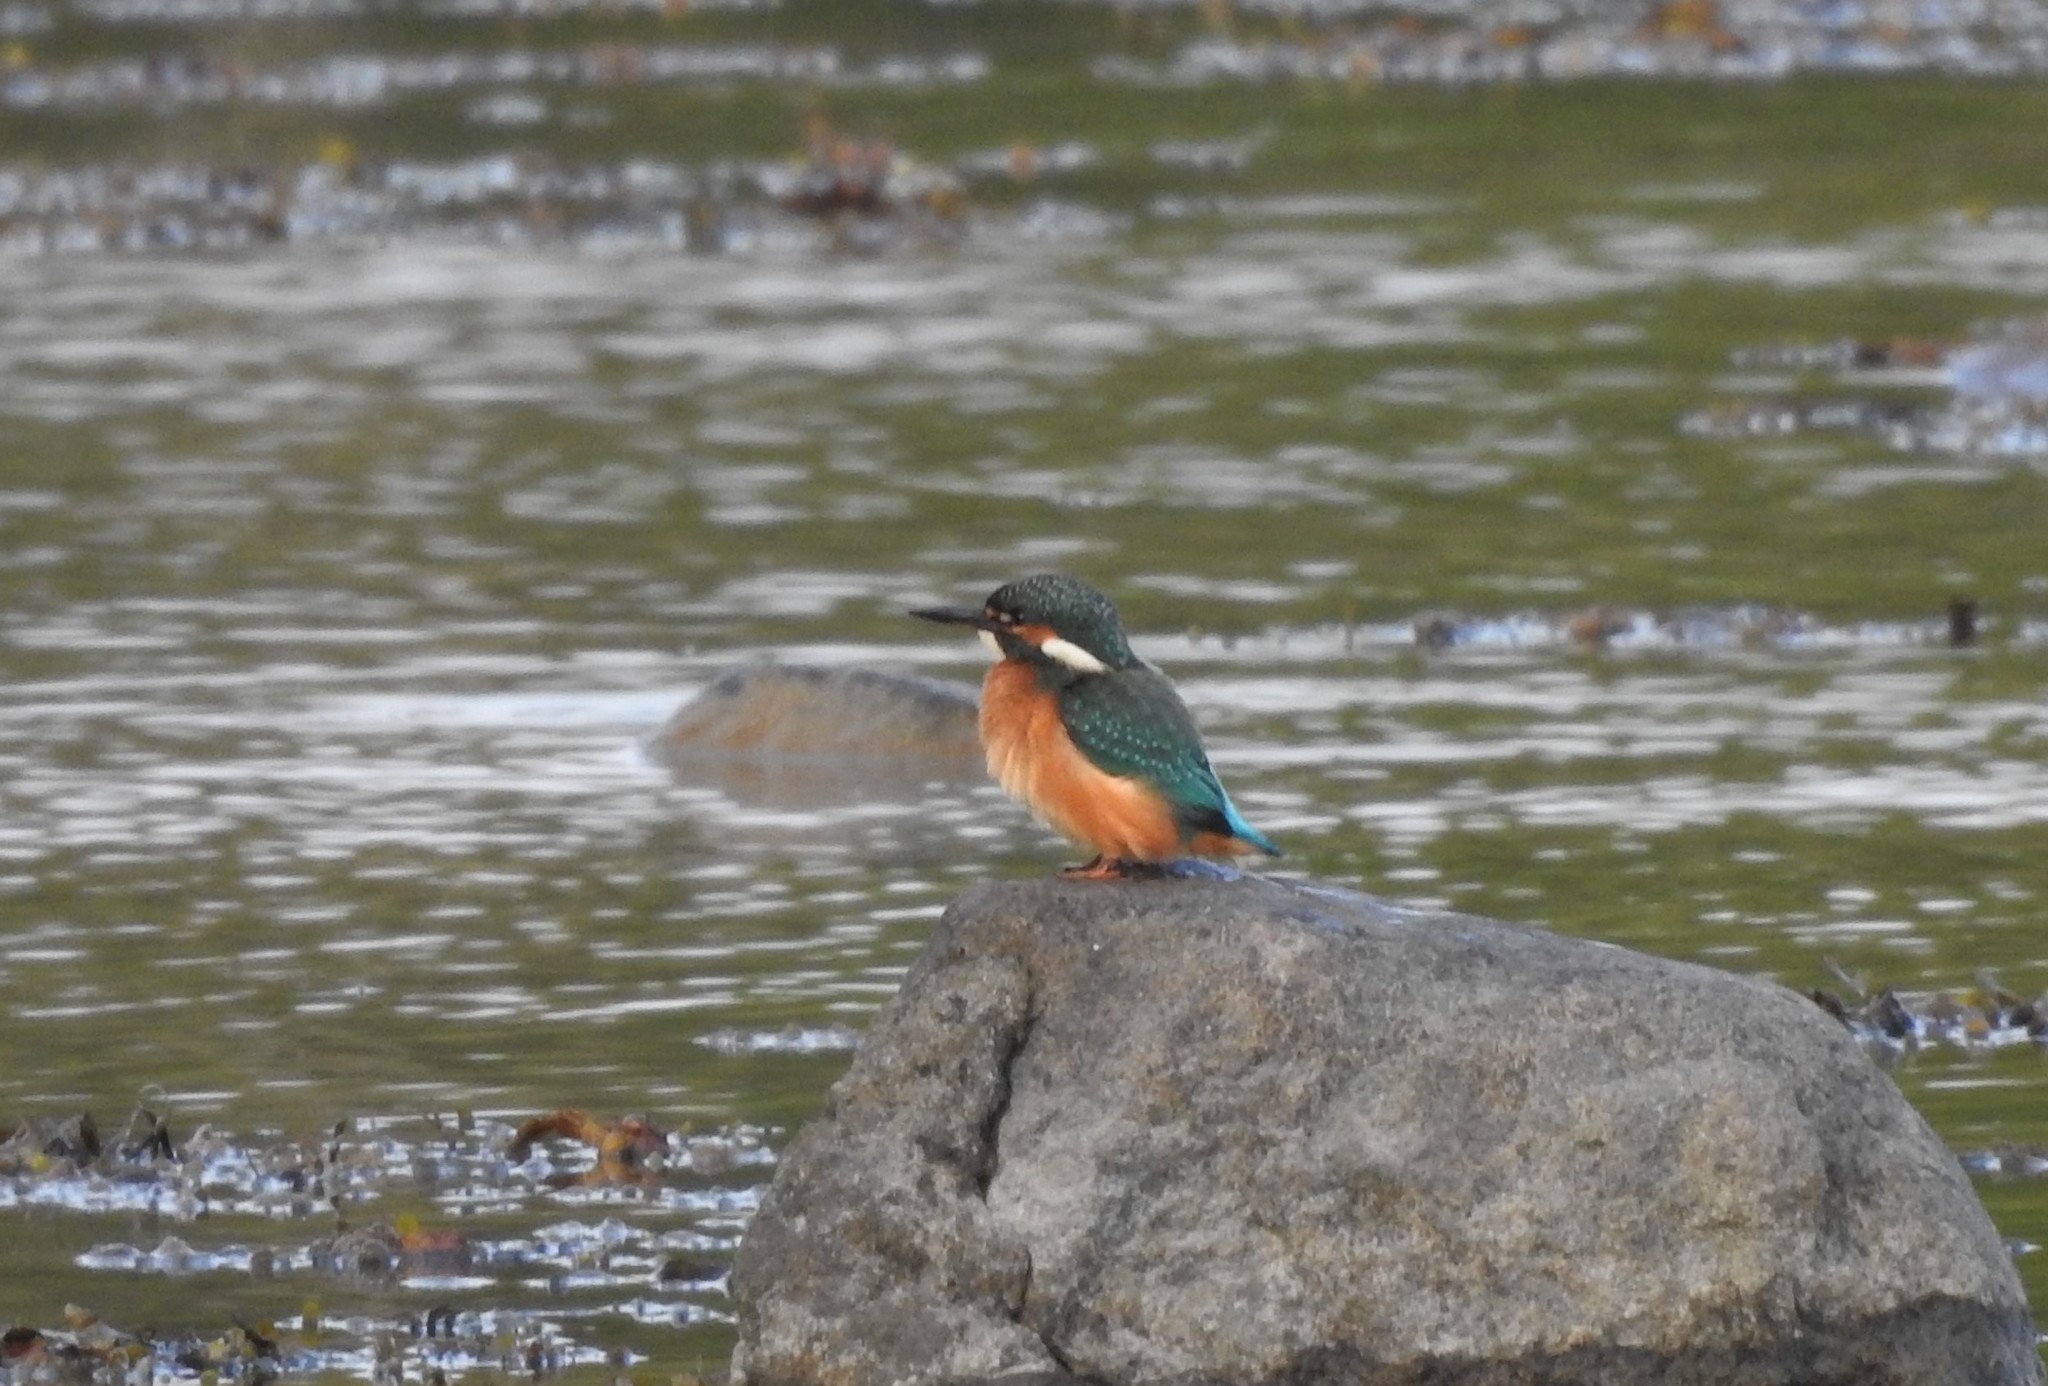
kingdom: Animalia
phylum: Chordata
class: Aves
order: Coraciiformes
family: Alcedinidae
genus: Alcedo
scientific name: Alcedo atthis
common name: Common kingfisher
